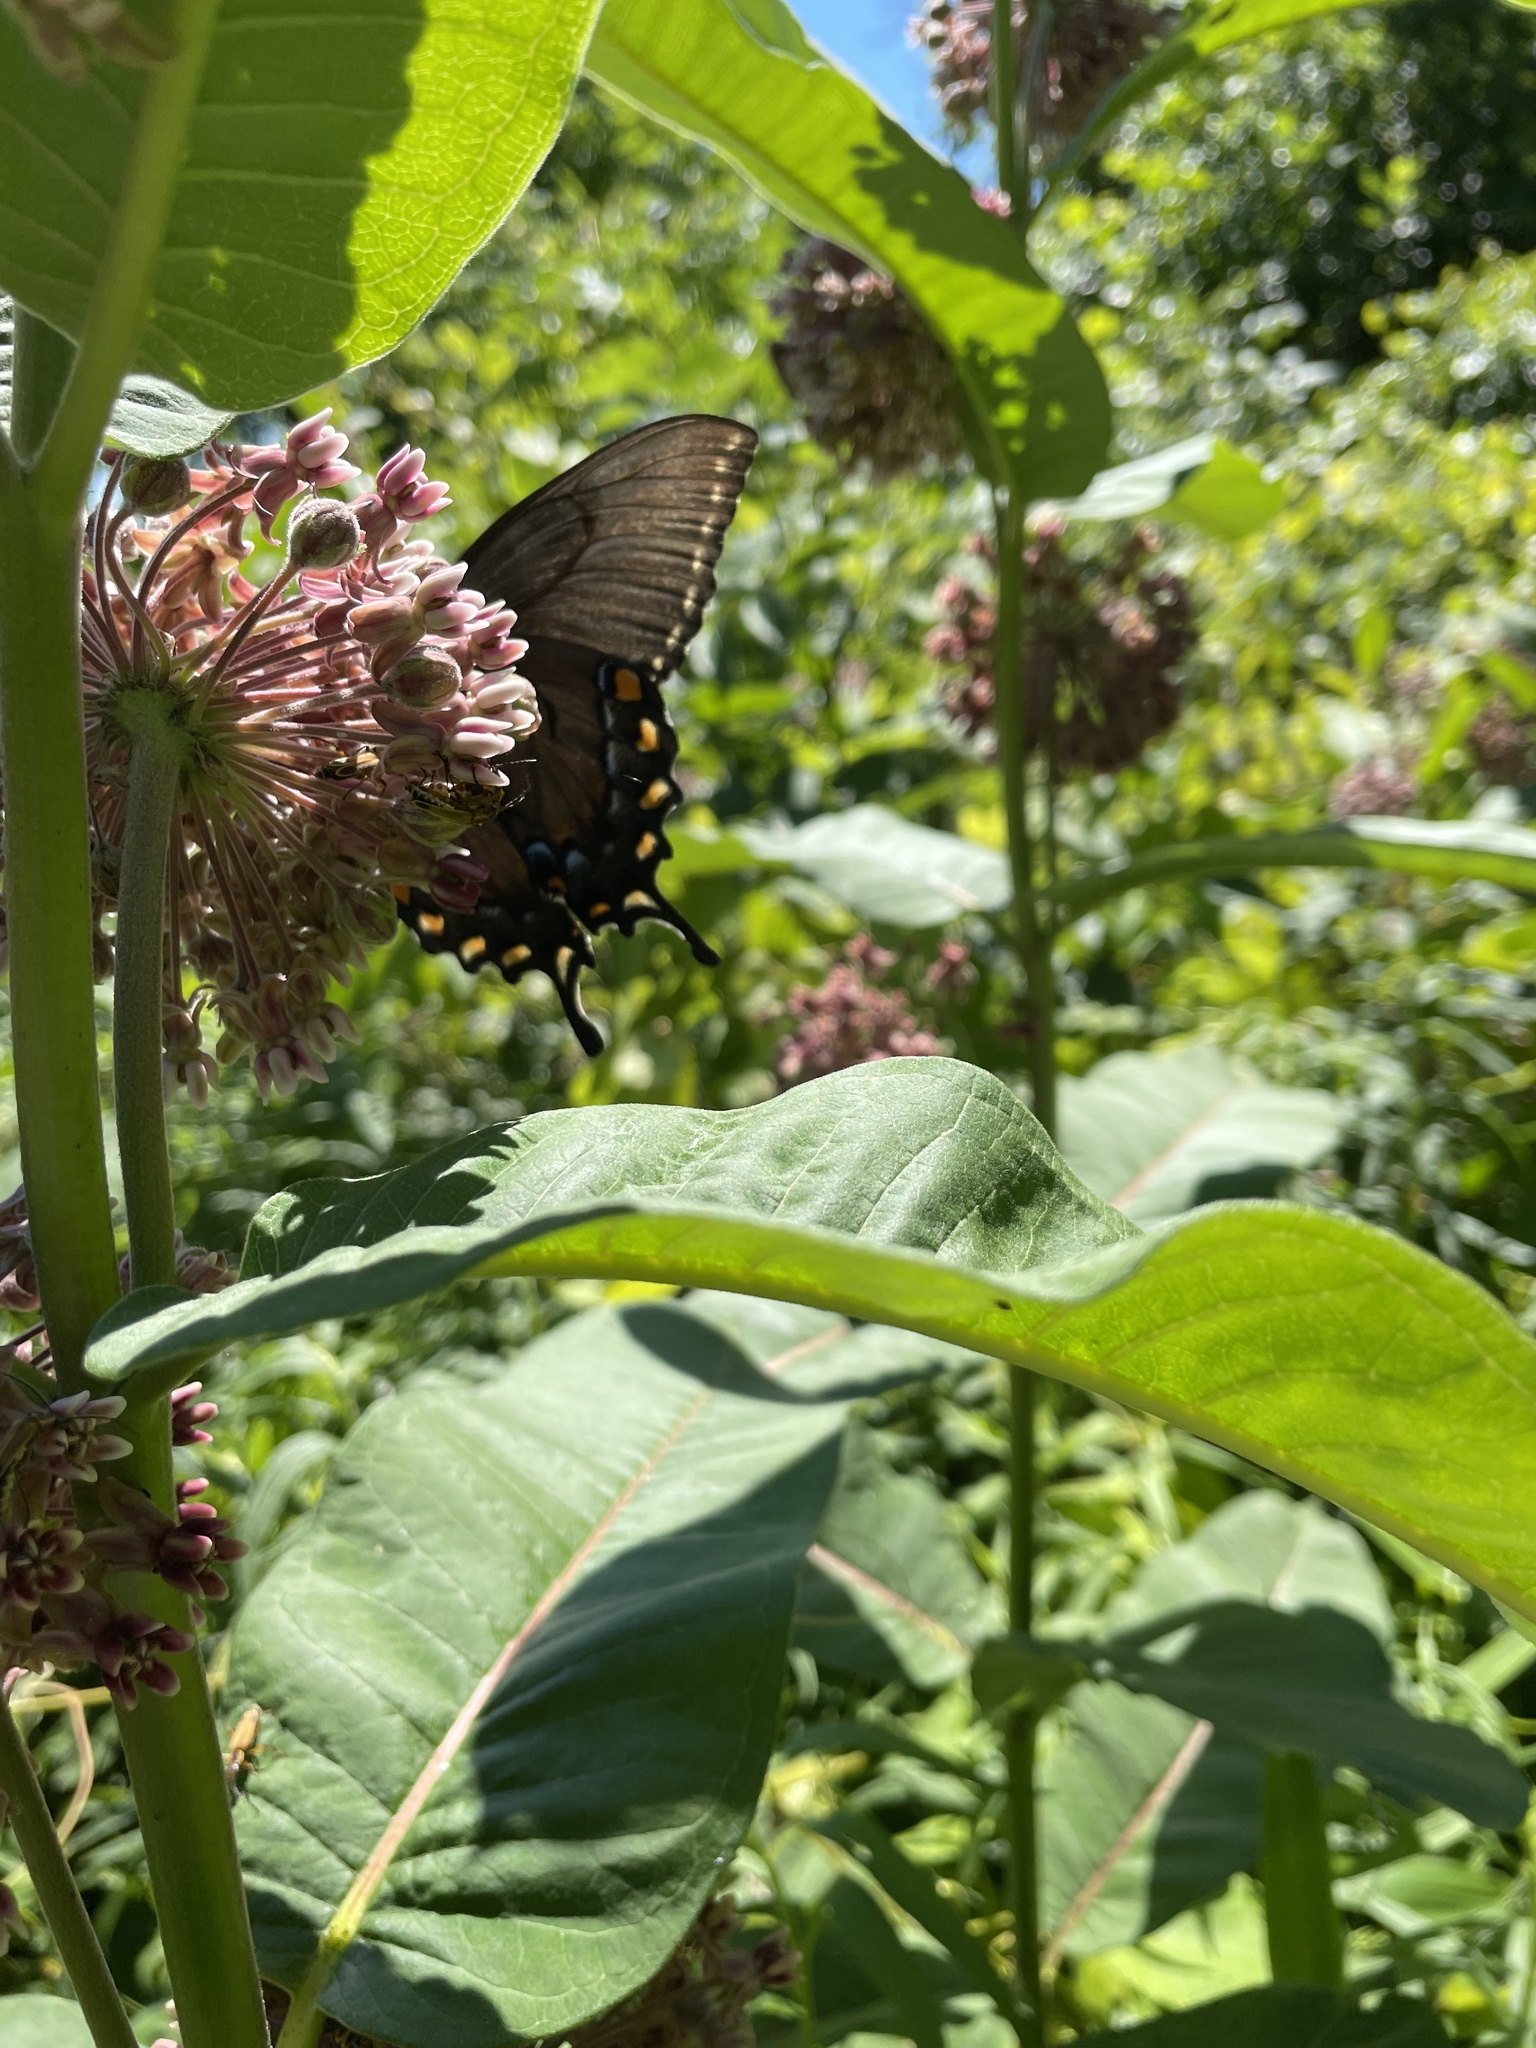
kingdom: Animalia
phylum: Arthropoda
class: Insecta
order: Lepidoptera
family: Papilionidae
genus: Papilio
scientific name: Papilio glaucus
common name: Tiger swallowtail
